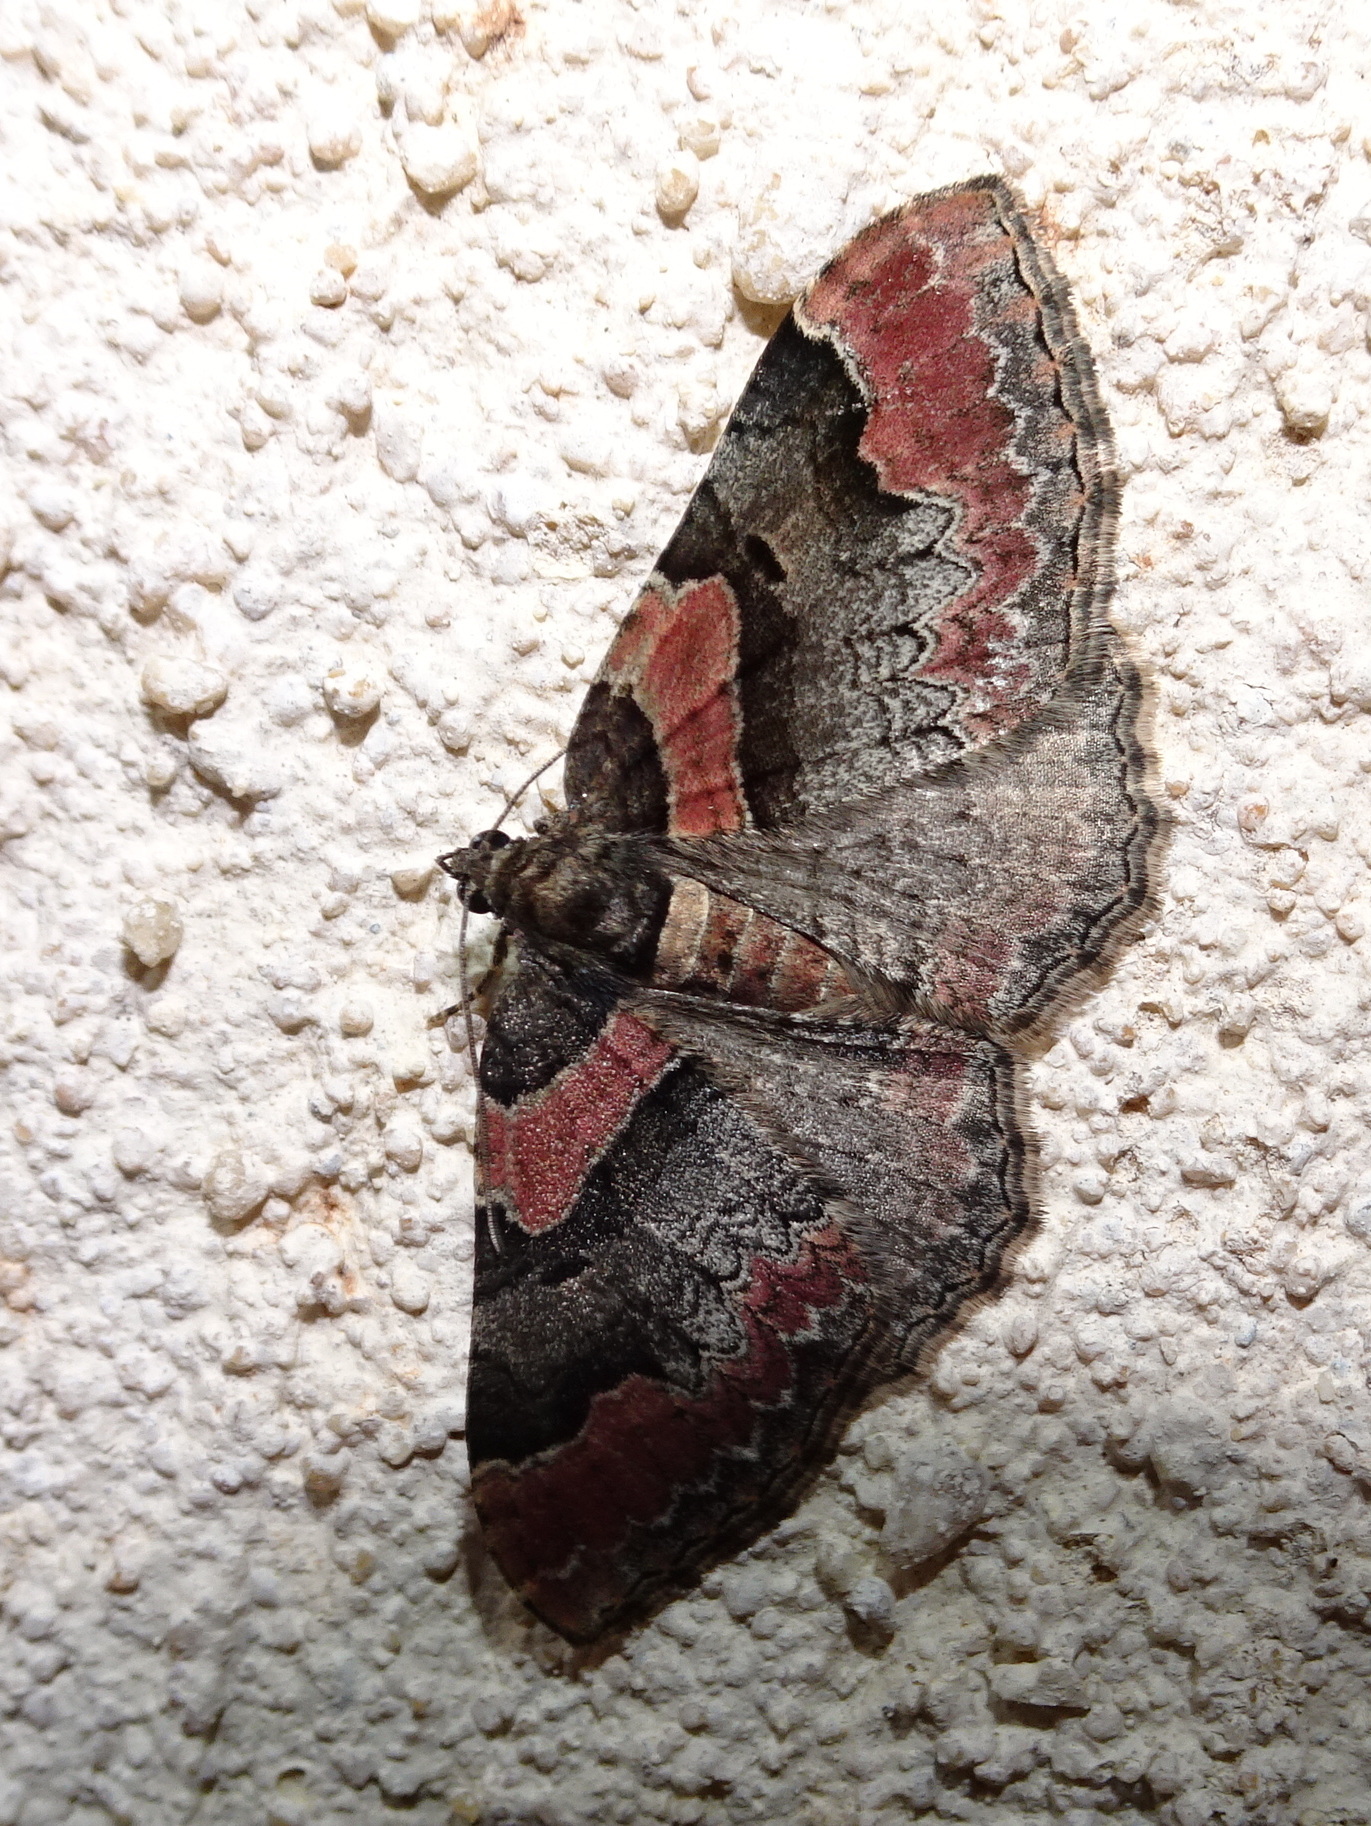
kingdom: Animalia
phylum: Arthropoda
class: Insecta
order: Lepidoptera
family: Geometridae
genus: Catarhoe
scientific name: Catarhoe rubidata
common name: Ruddy carpet
